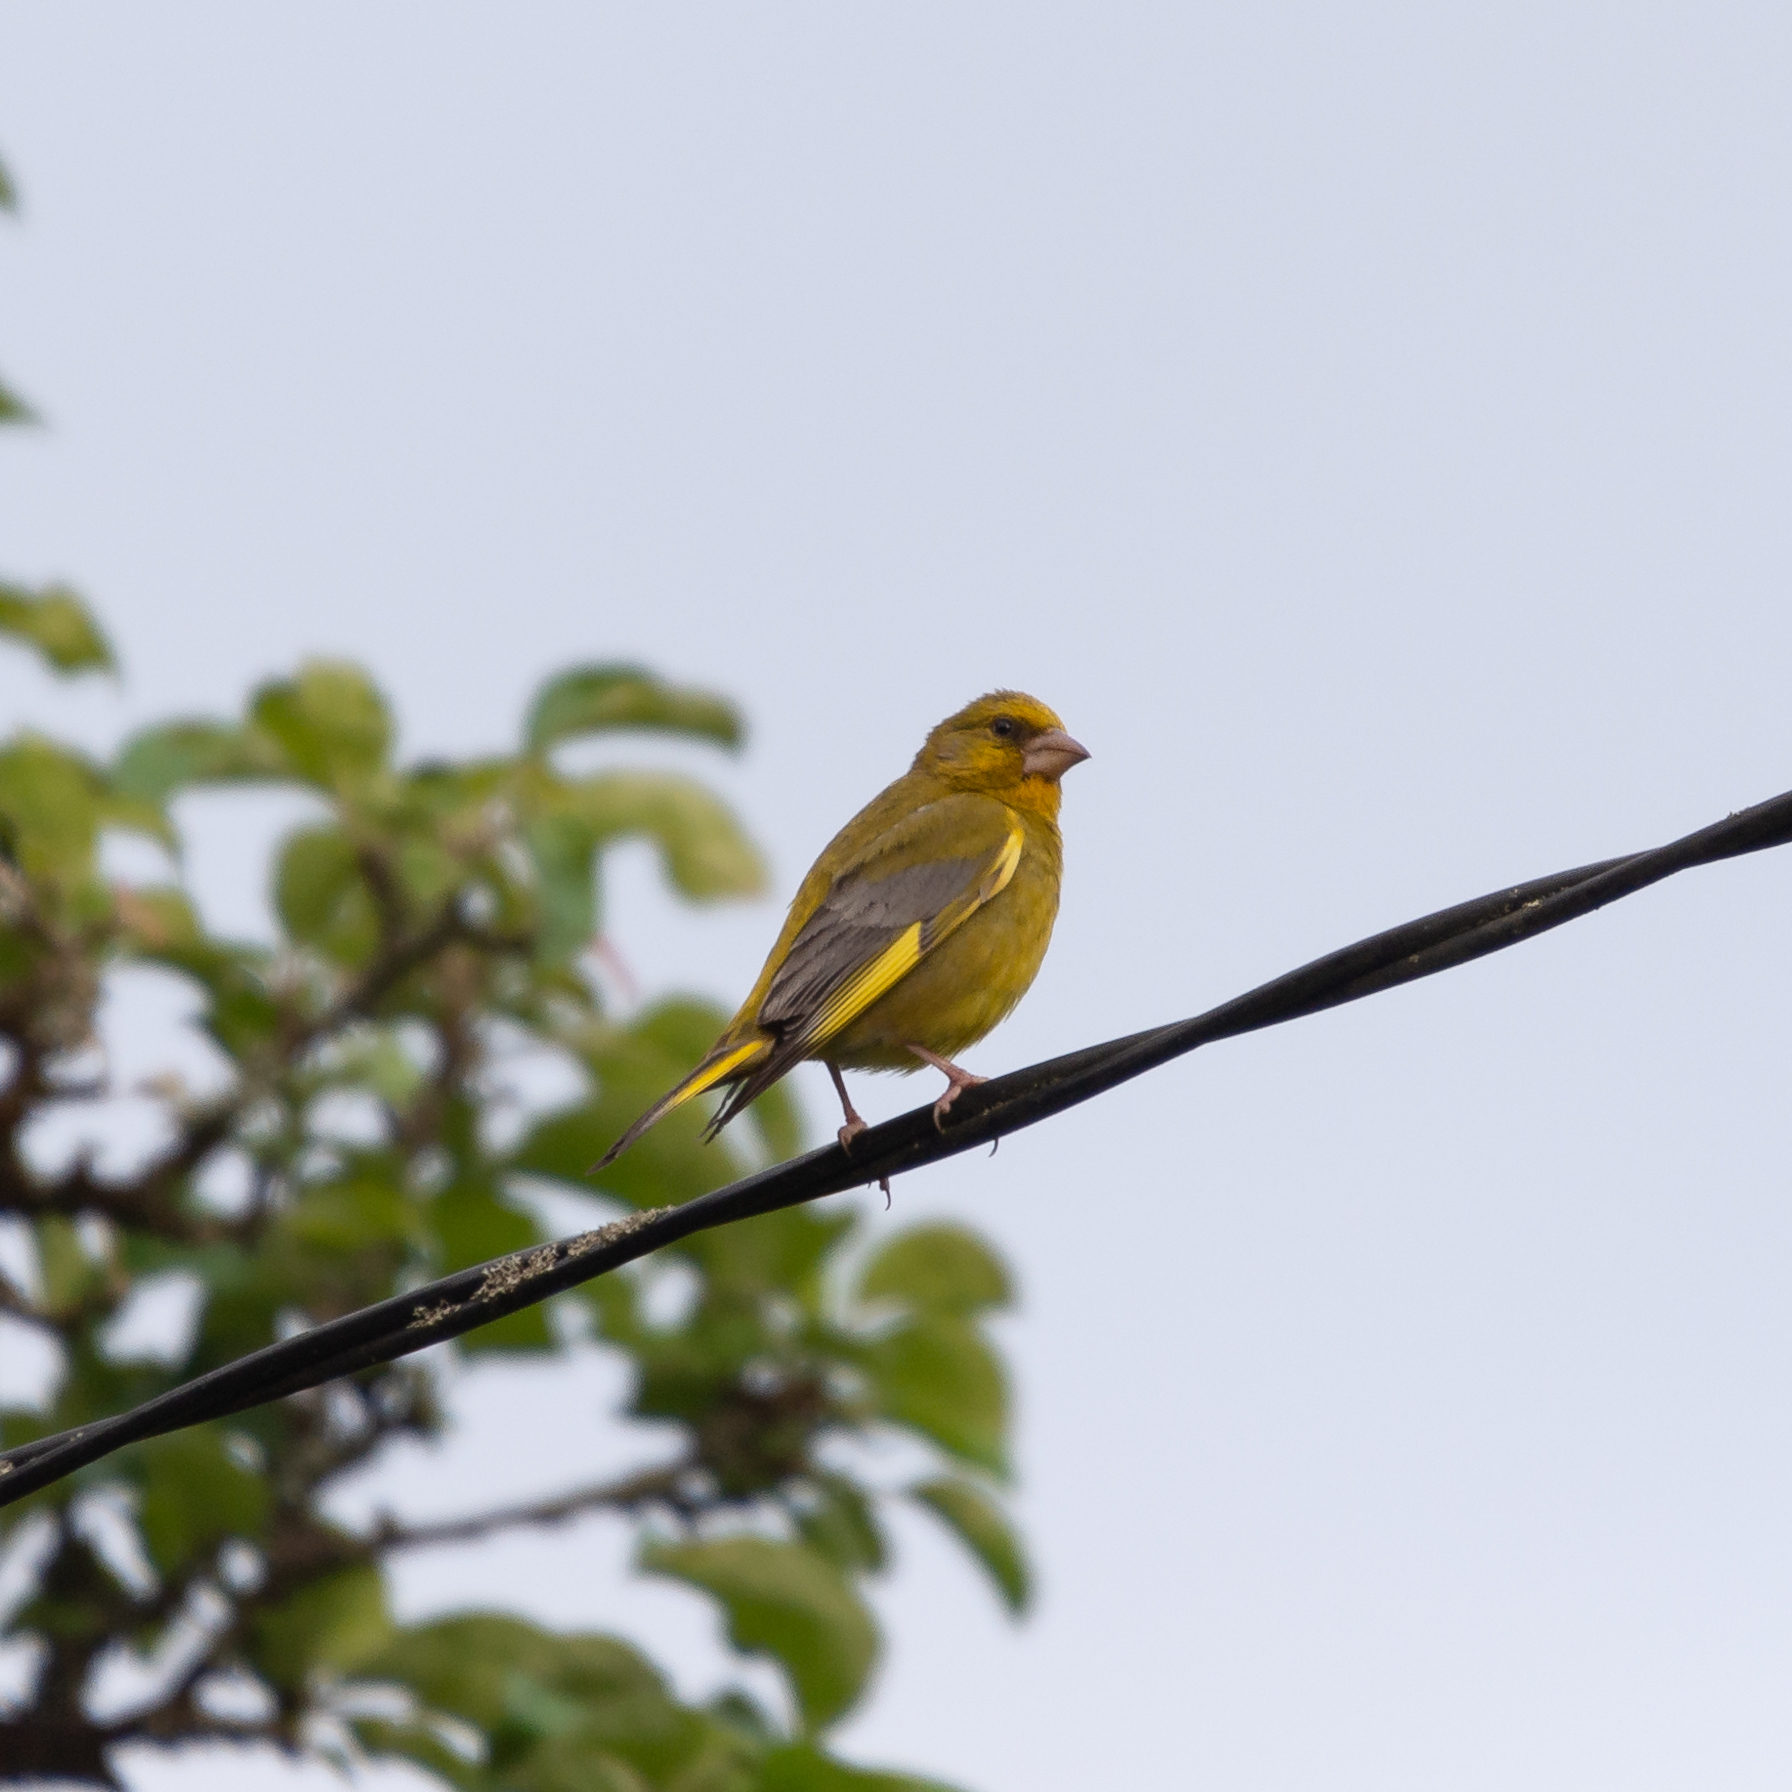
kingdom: Plantae
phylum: Tracheophyta
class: Liliopsida
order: Poales
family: Poaceae
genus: Chloris
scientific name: Chloris chloris
